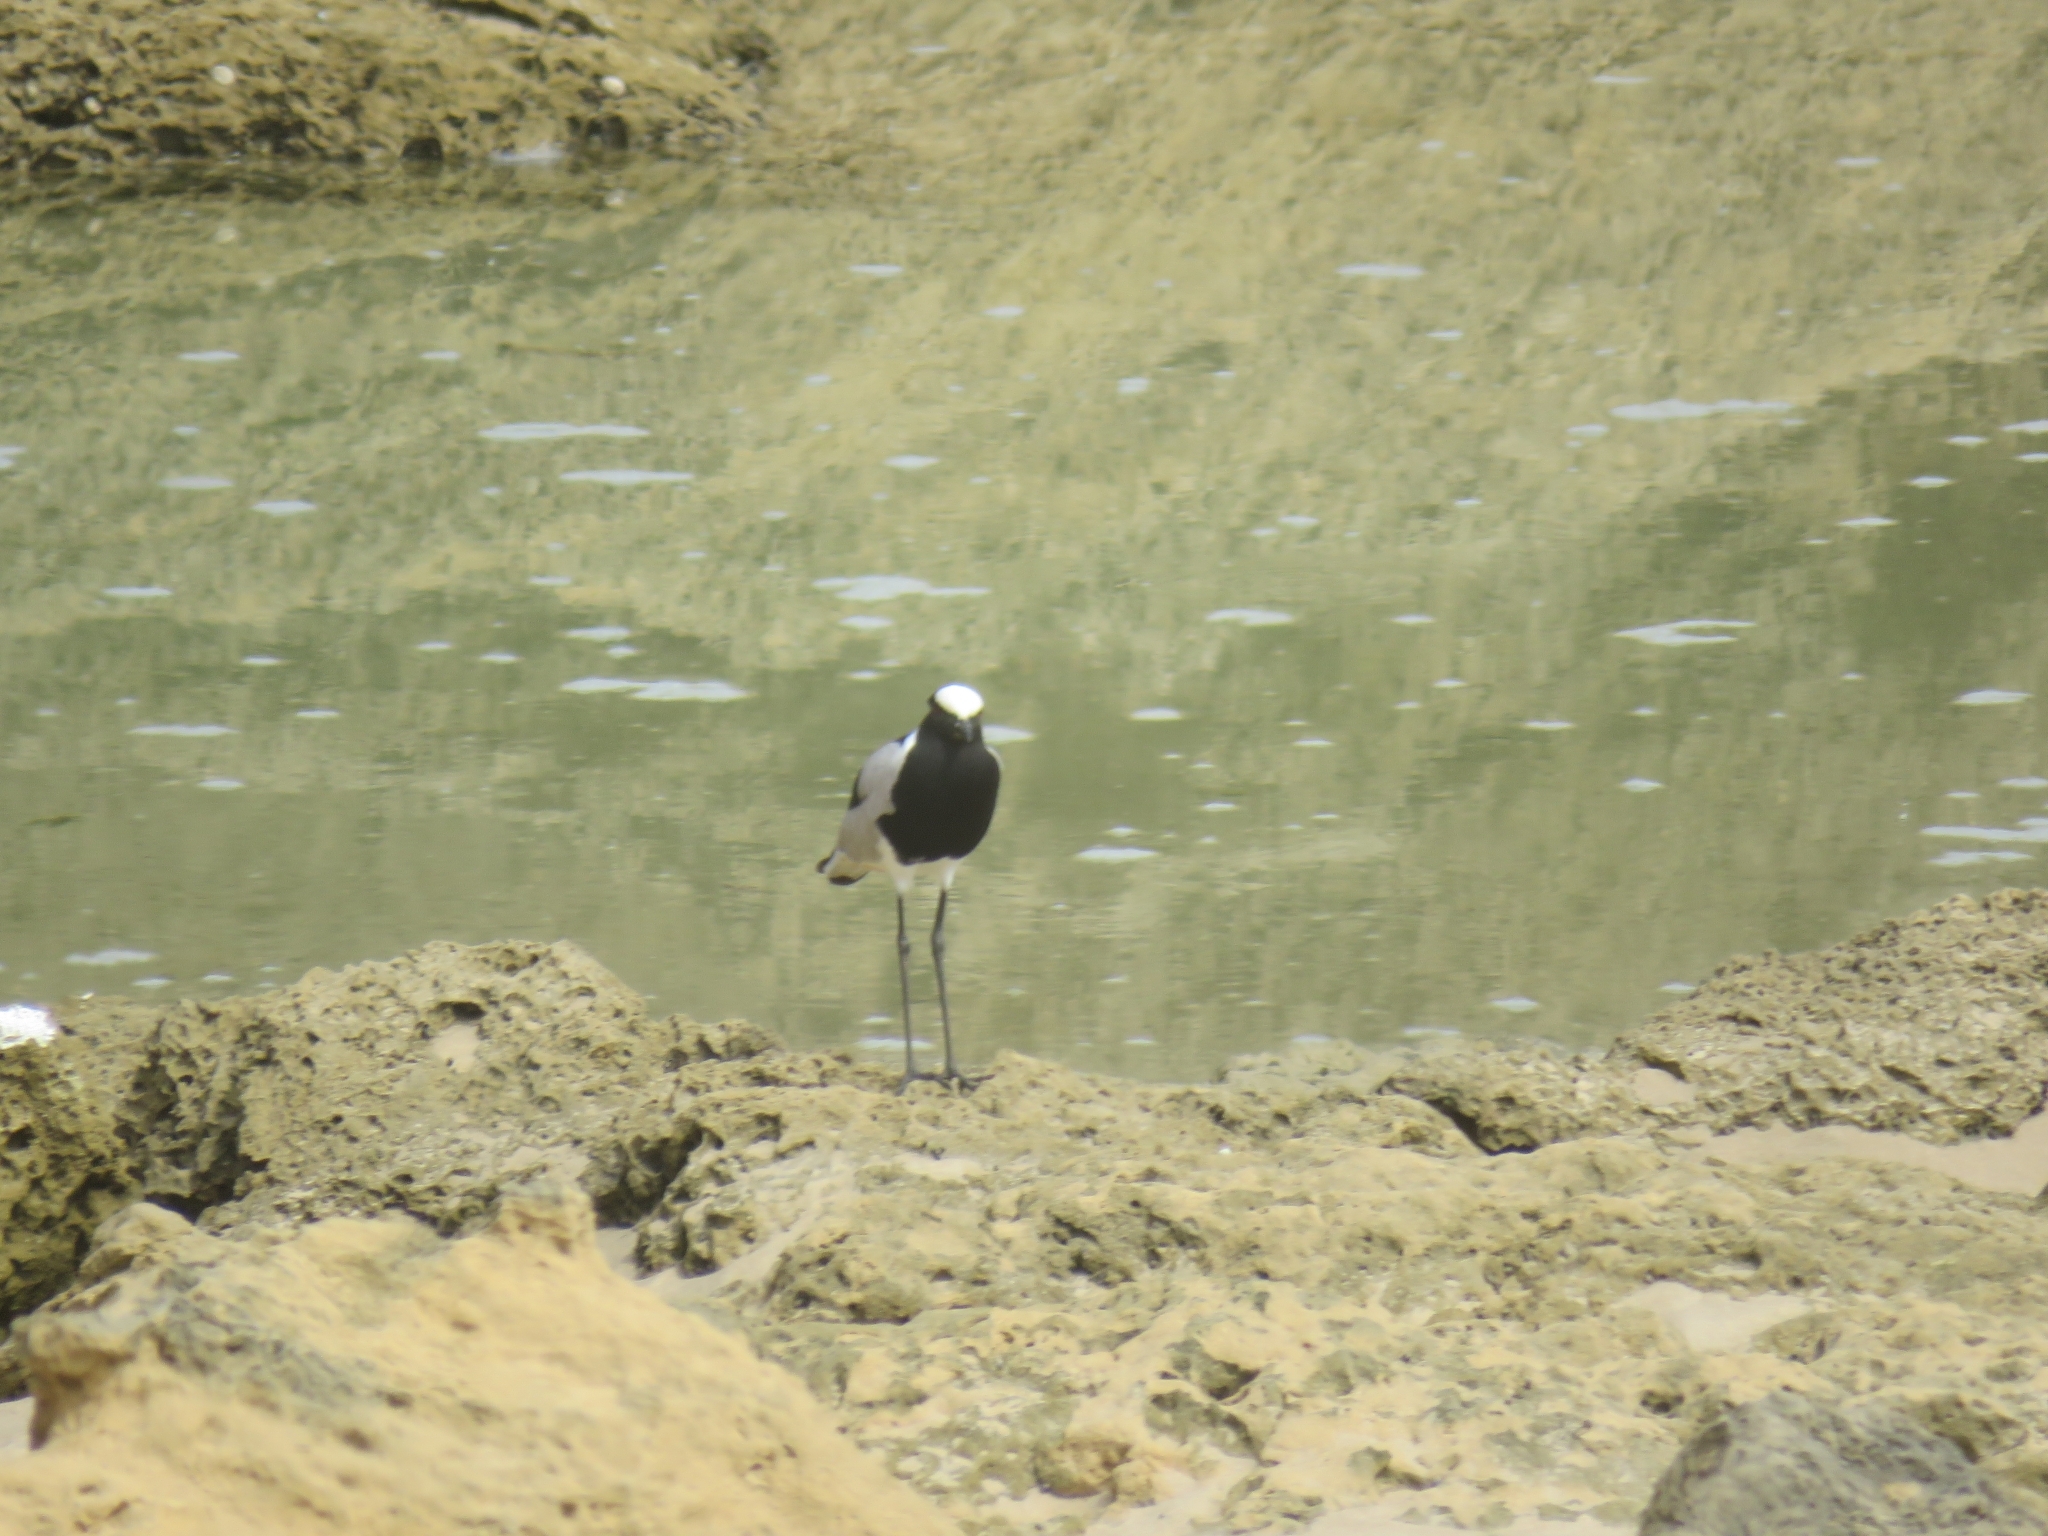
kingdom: Animalia
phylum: Chordata
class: Aves
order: Charadriiformes
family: Charadriidae
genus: Vanellus
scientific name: Vanellus armatus
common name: Blacksmith lapwing
